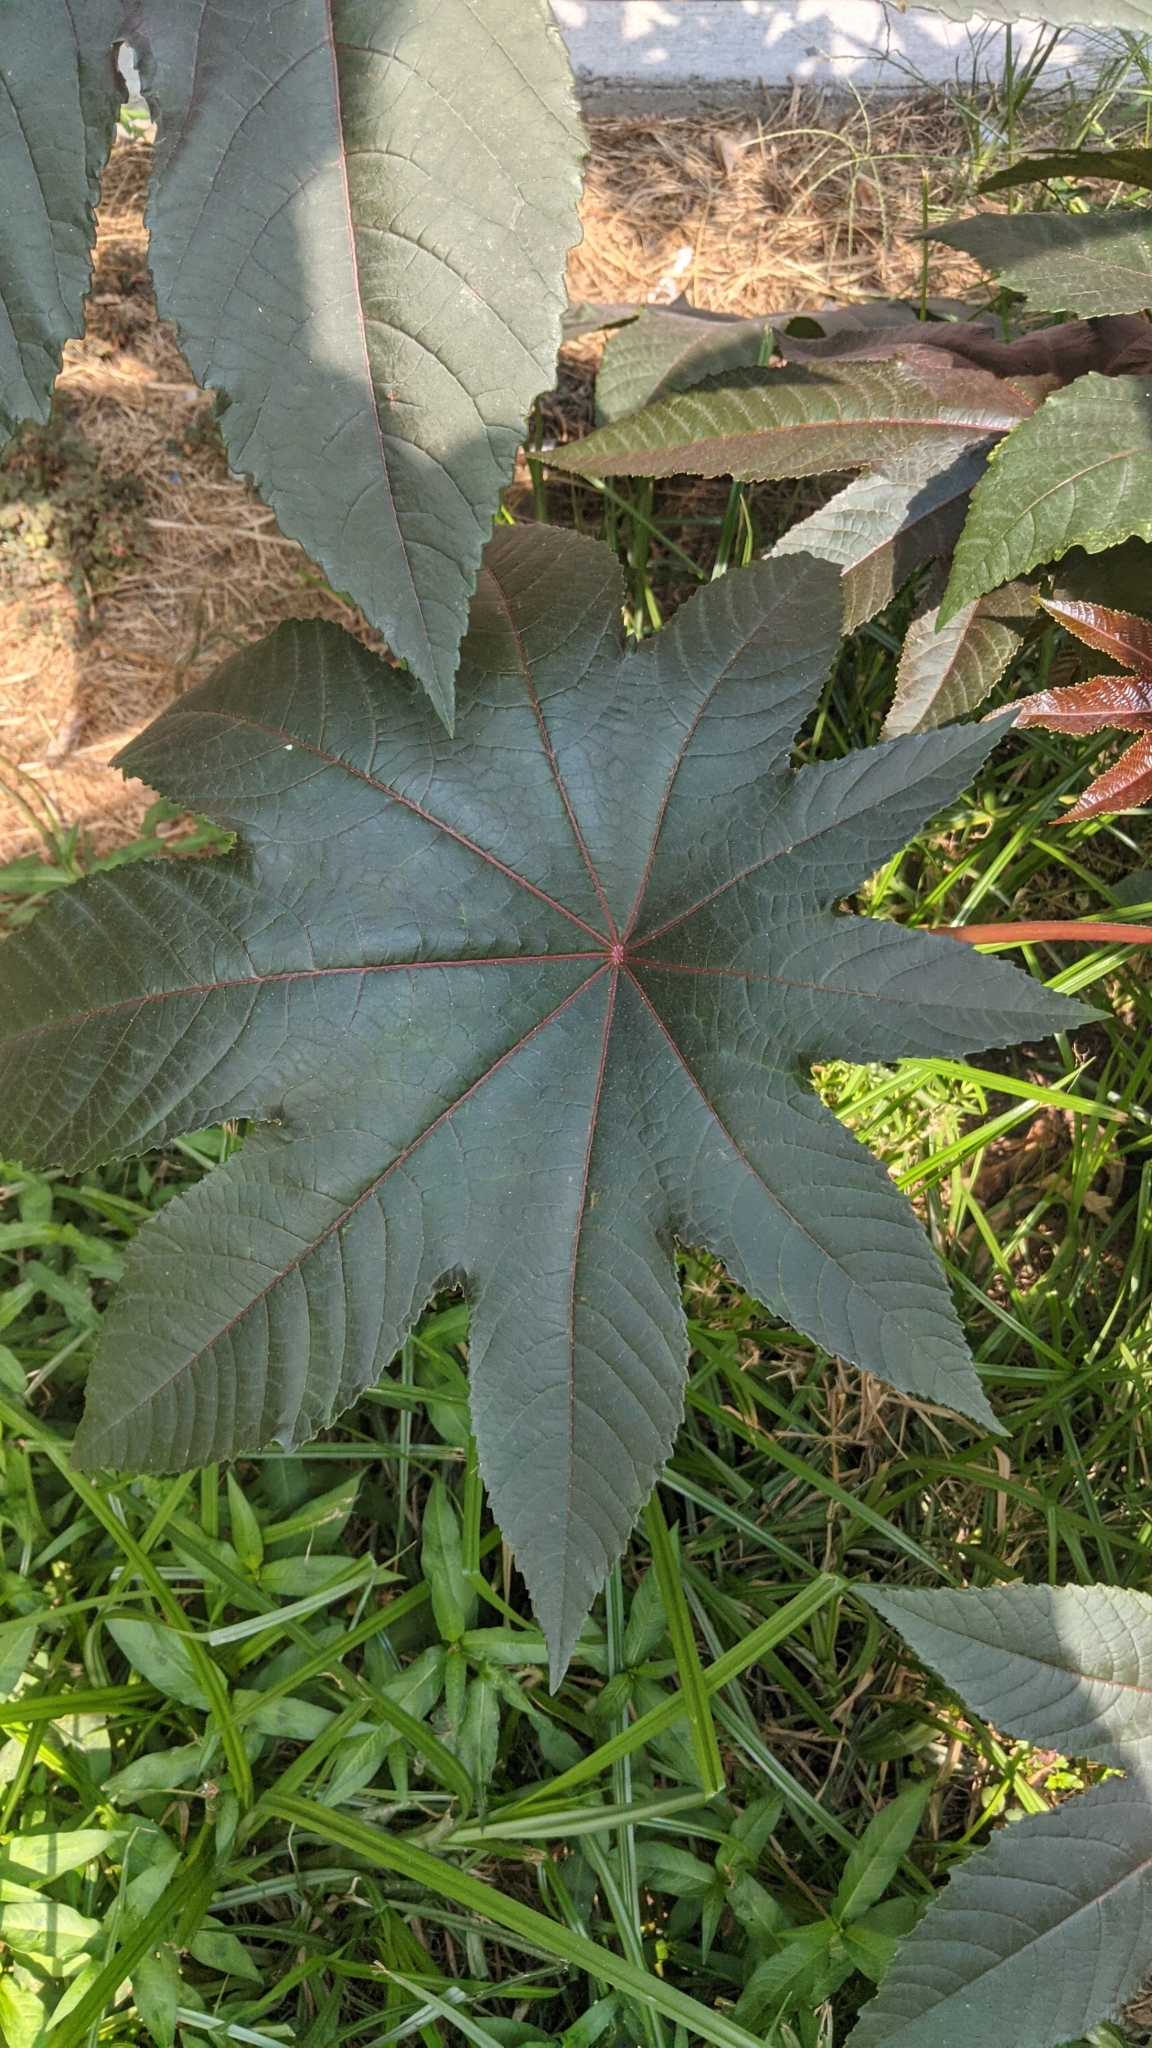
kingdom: Plantae
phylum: Tracheophyta
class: Magnoliopsida
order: Malpighiales
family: Euphorbiaceae
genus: Ricinus
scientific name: Ricinus communis
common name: Castor-oil-plant
